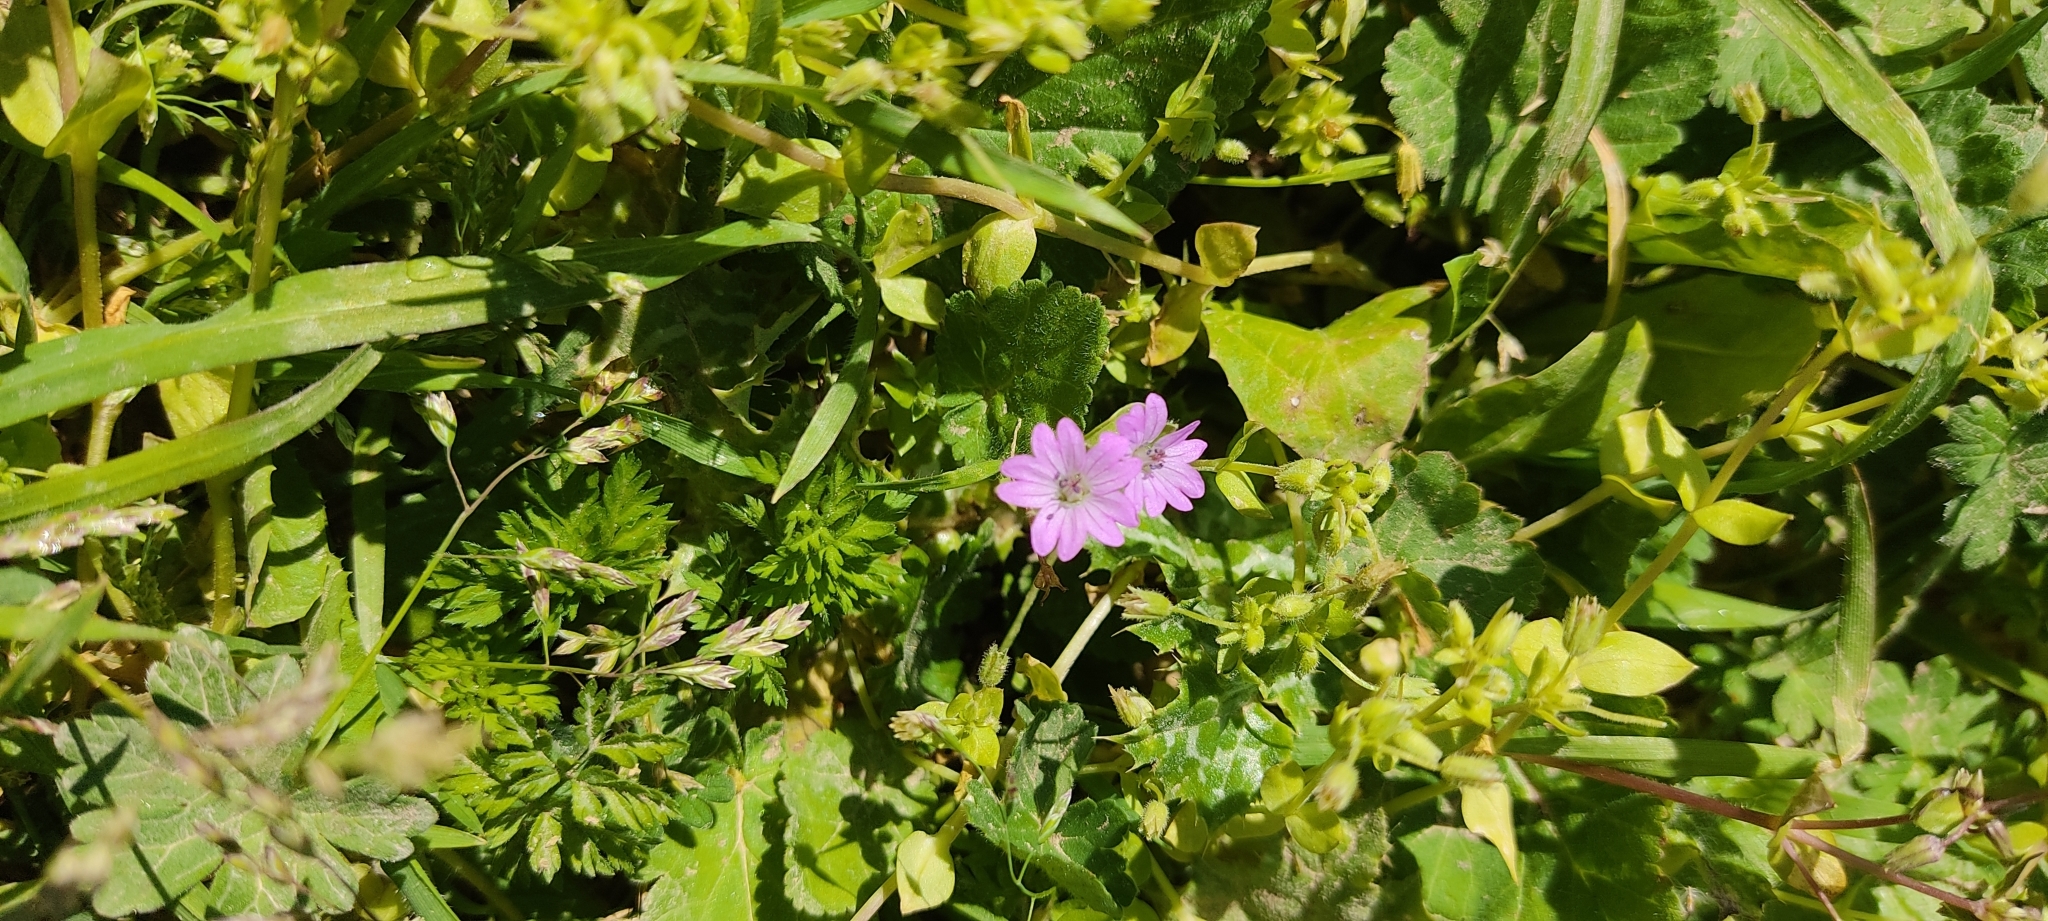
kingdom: Plantae
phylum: Tracheophyta
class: Magnoliopsida
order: Geraniales
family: Geraniaceae
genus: Geranium
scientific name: Geranium molle
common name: Dove's-foot crane's-bill
